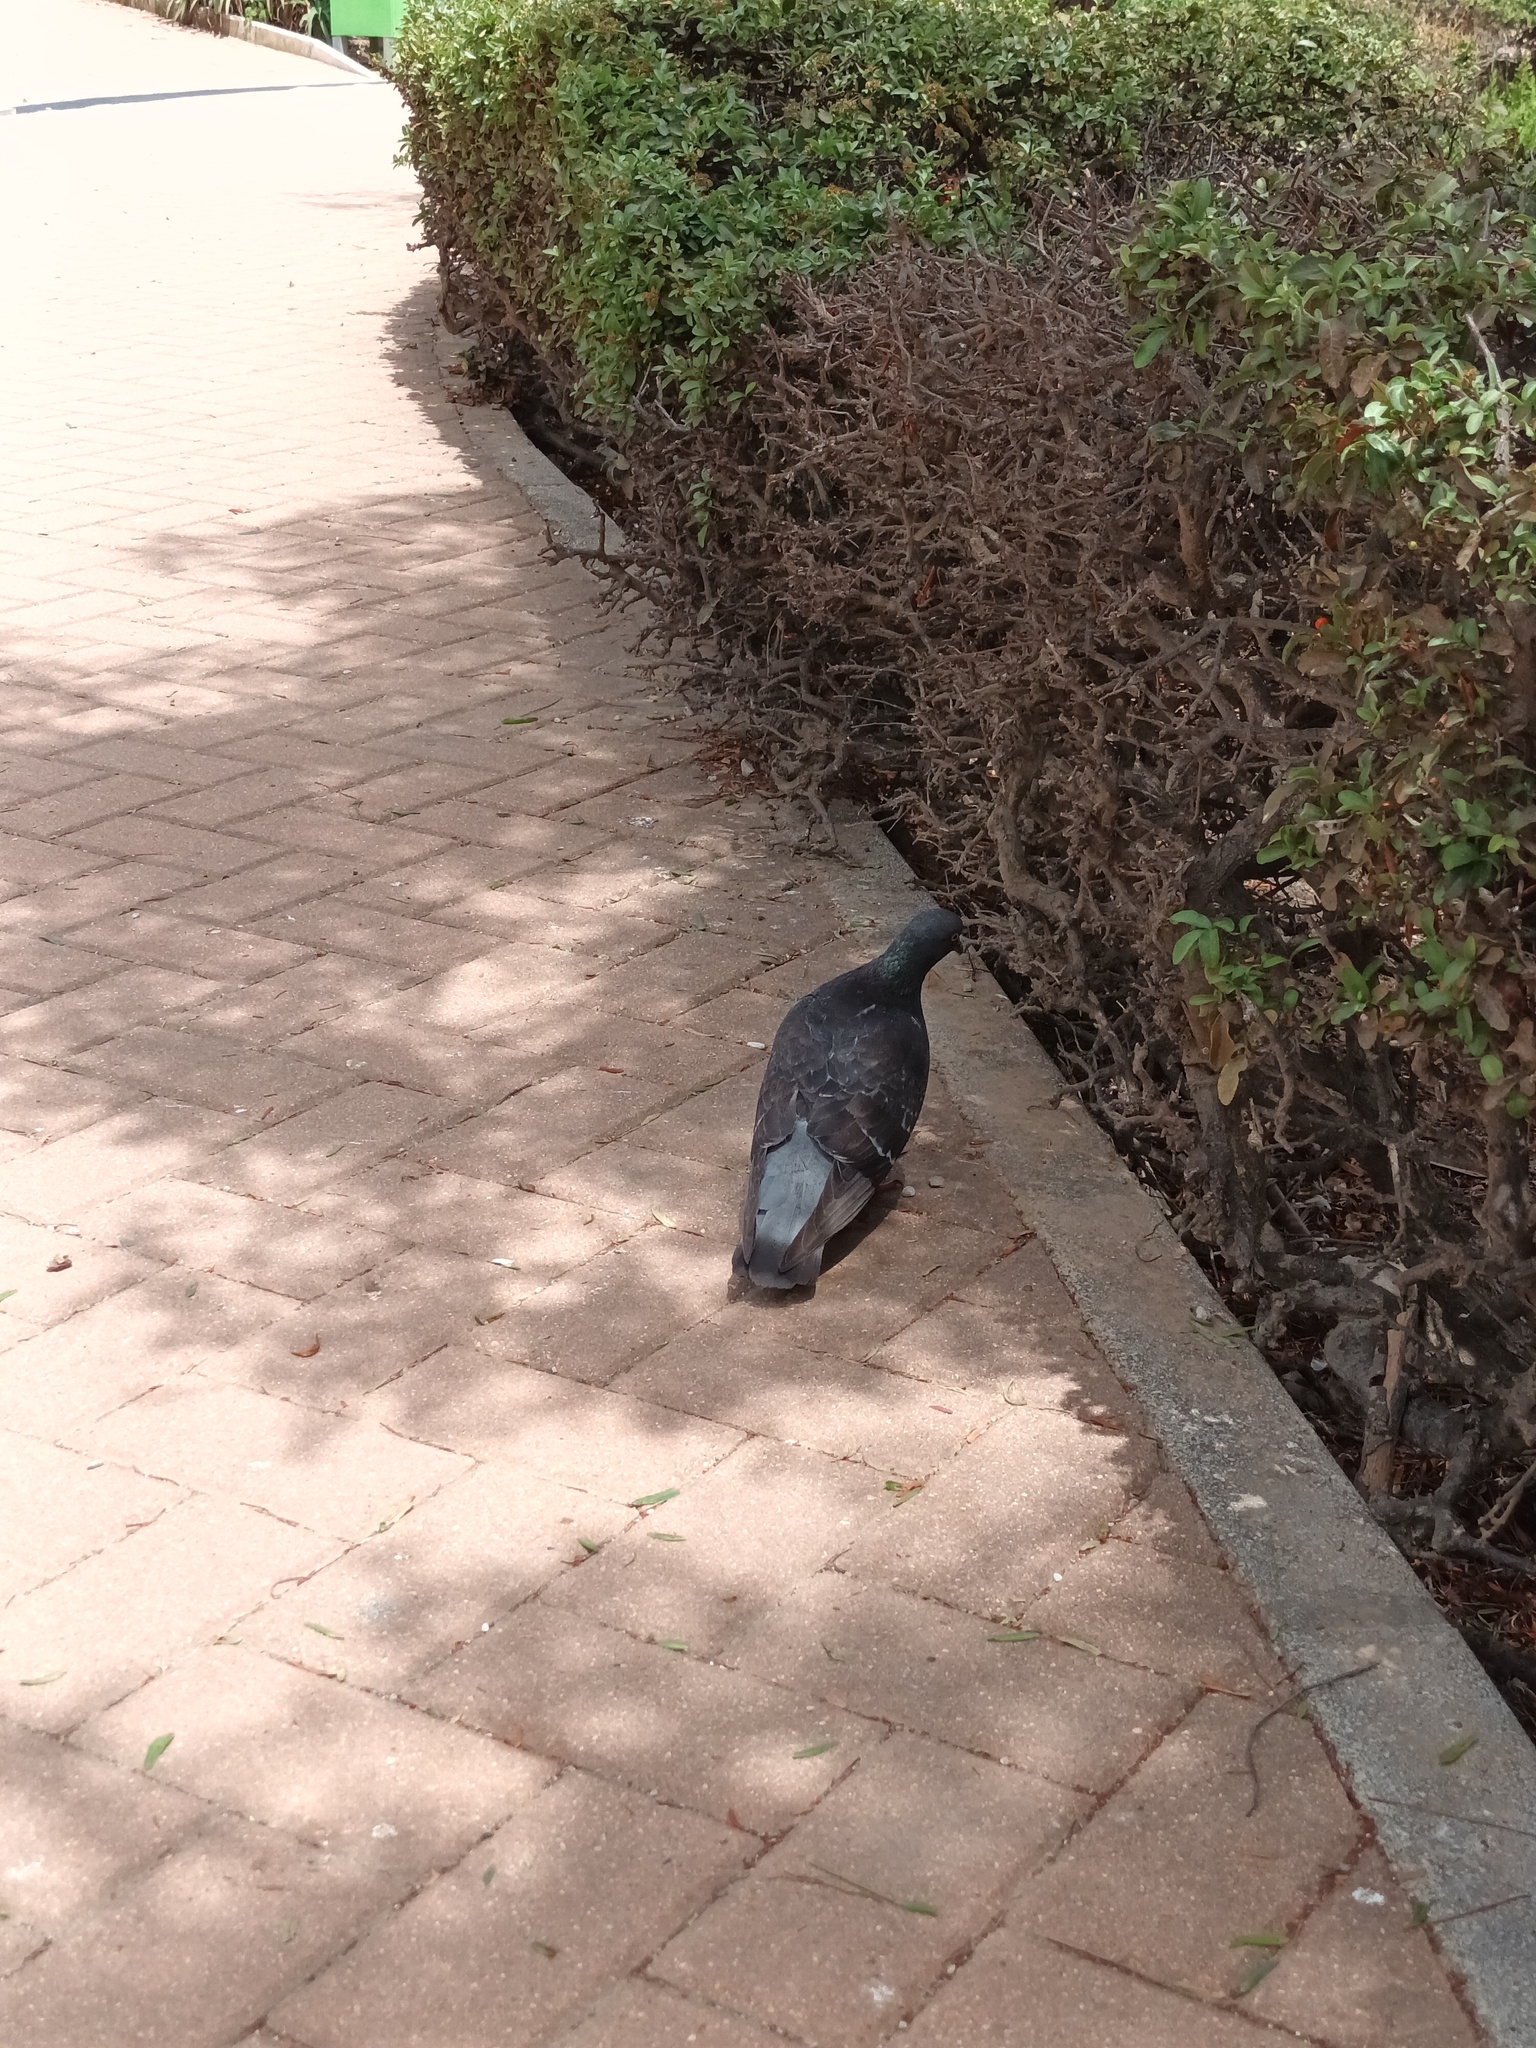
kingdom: Animalia
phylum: Chordata
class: Aves
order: Columbiformes
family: Columbidae
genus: Columba
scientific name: Columba livia
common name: Rock pigeon
